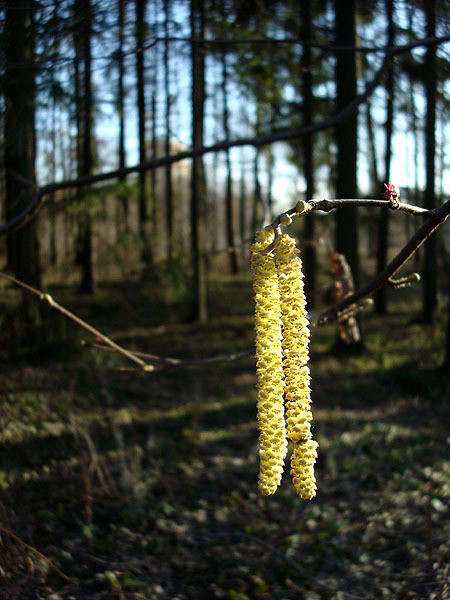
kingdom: Plantae
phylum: Tracheophyta
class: Magnoliopsida
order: Fagales
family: Betulaceae
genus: Corylus
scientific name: Corylus avellana
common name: European hazel
